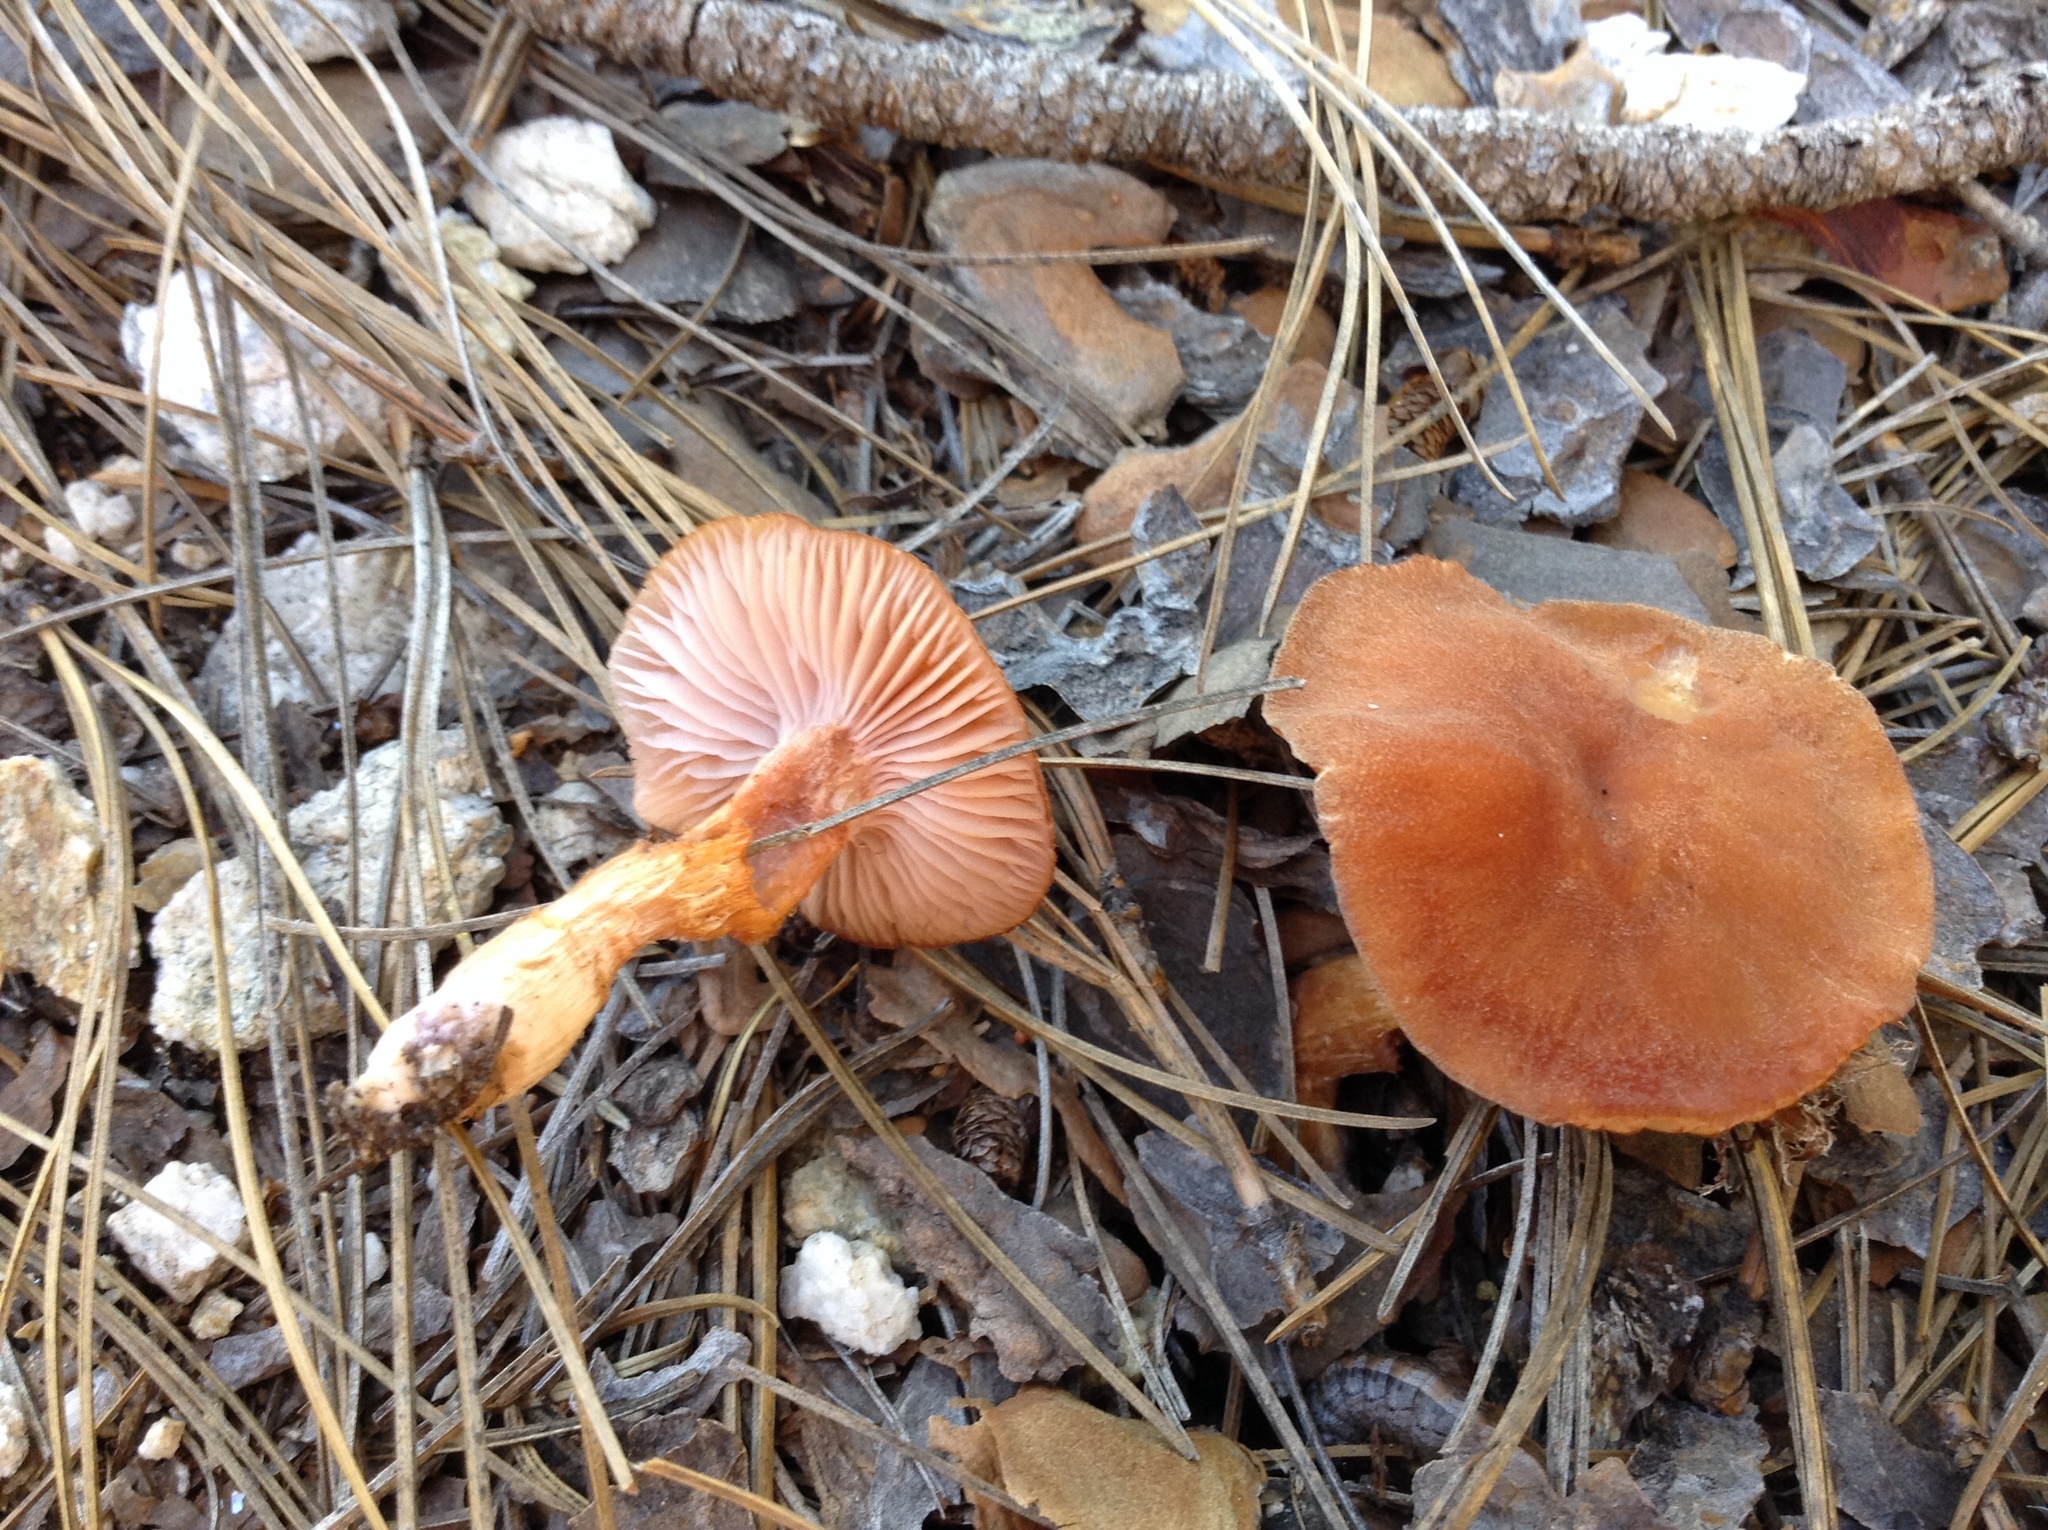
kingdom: Fungi
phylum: Basidiomycota
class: Agaricomycetes
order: Agaricales
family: Hydnangiaceae
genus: Laccaria
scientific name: Laccaria laccata
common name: Deceiver
